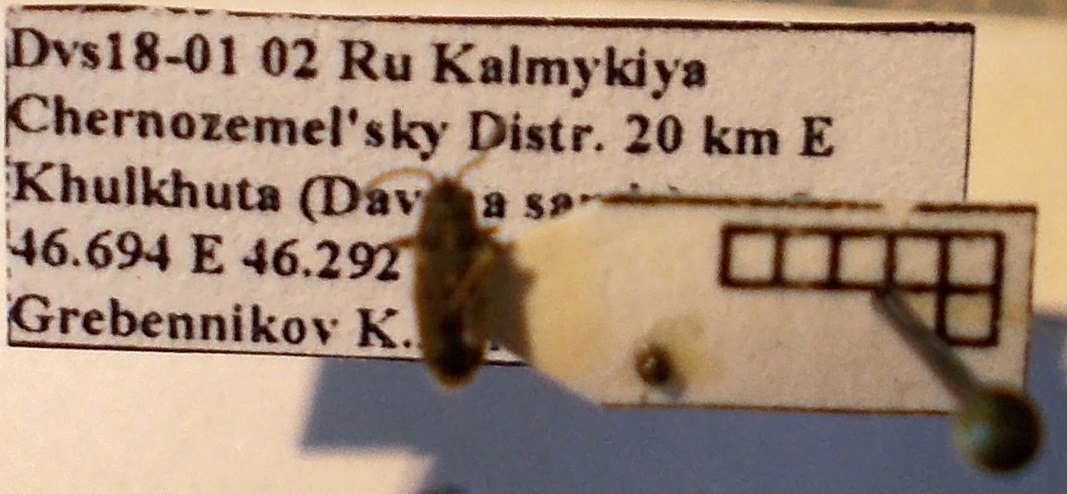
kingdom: Animalia
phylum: Arthropoda
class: Insecta
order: Hemiptera
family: Lygaeidae
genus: Lygaeosoma
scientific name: Lygaeosoma sardeum
